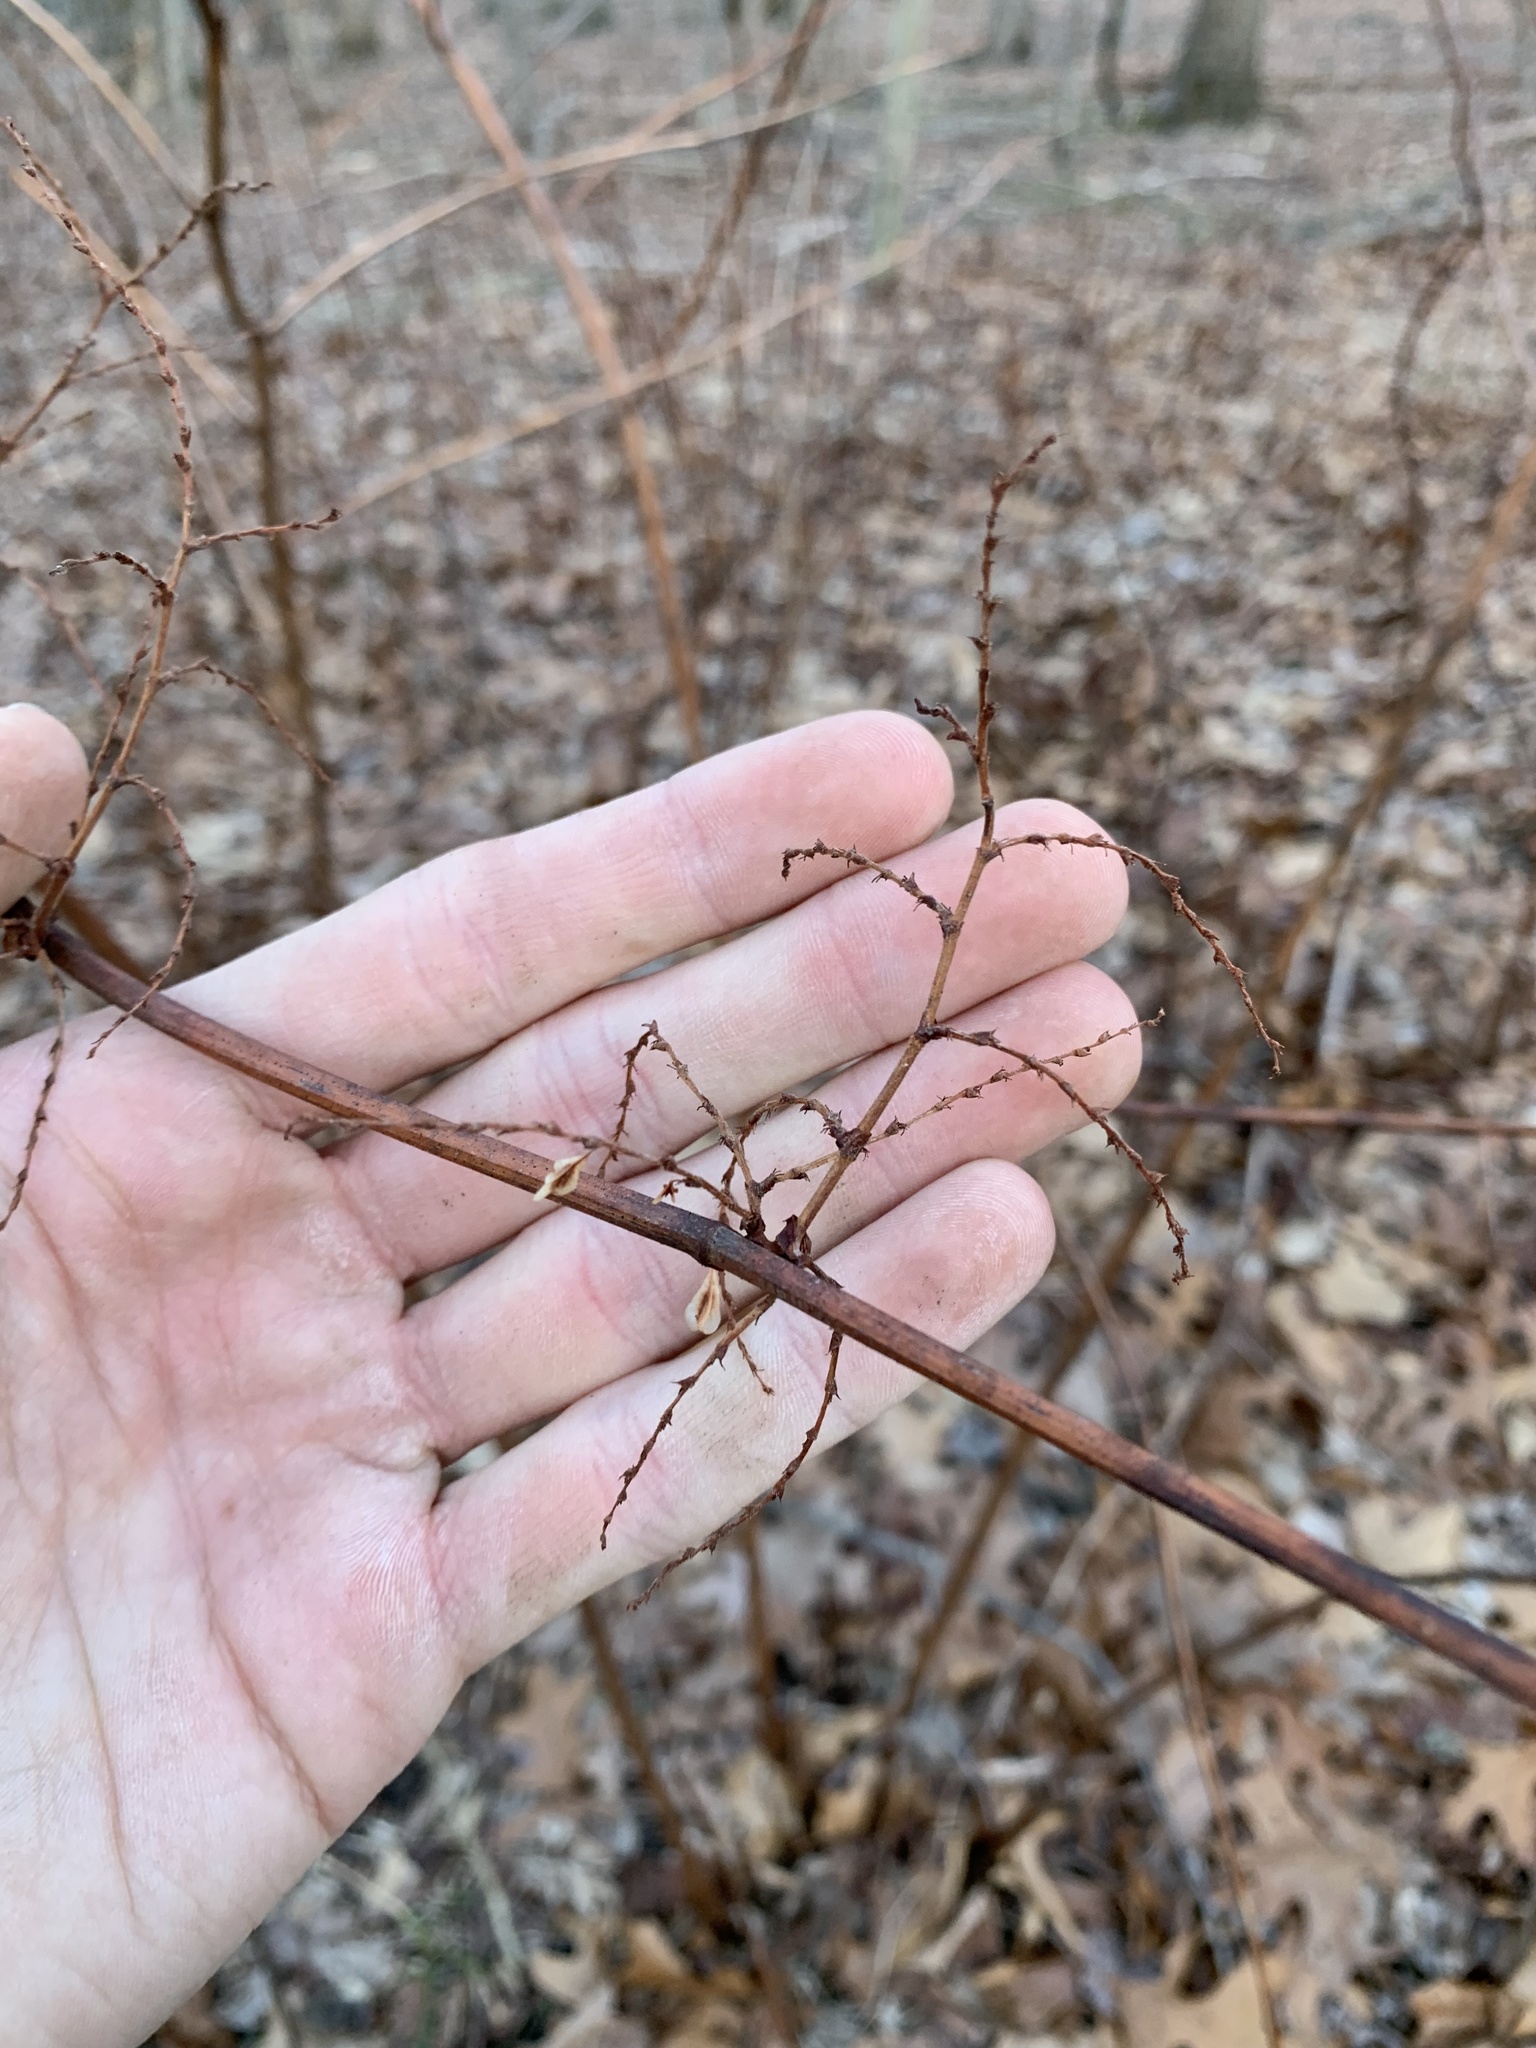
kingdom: Plantae
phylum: Tracheophyta
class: Magnoliopsida
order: Caryophyllales
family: Polygonaceae
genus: Reynoutria
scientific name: Reynoutria japonica
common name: Japanese knotweed
